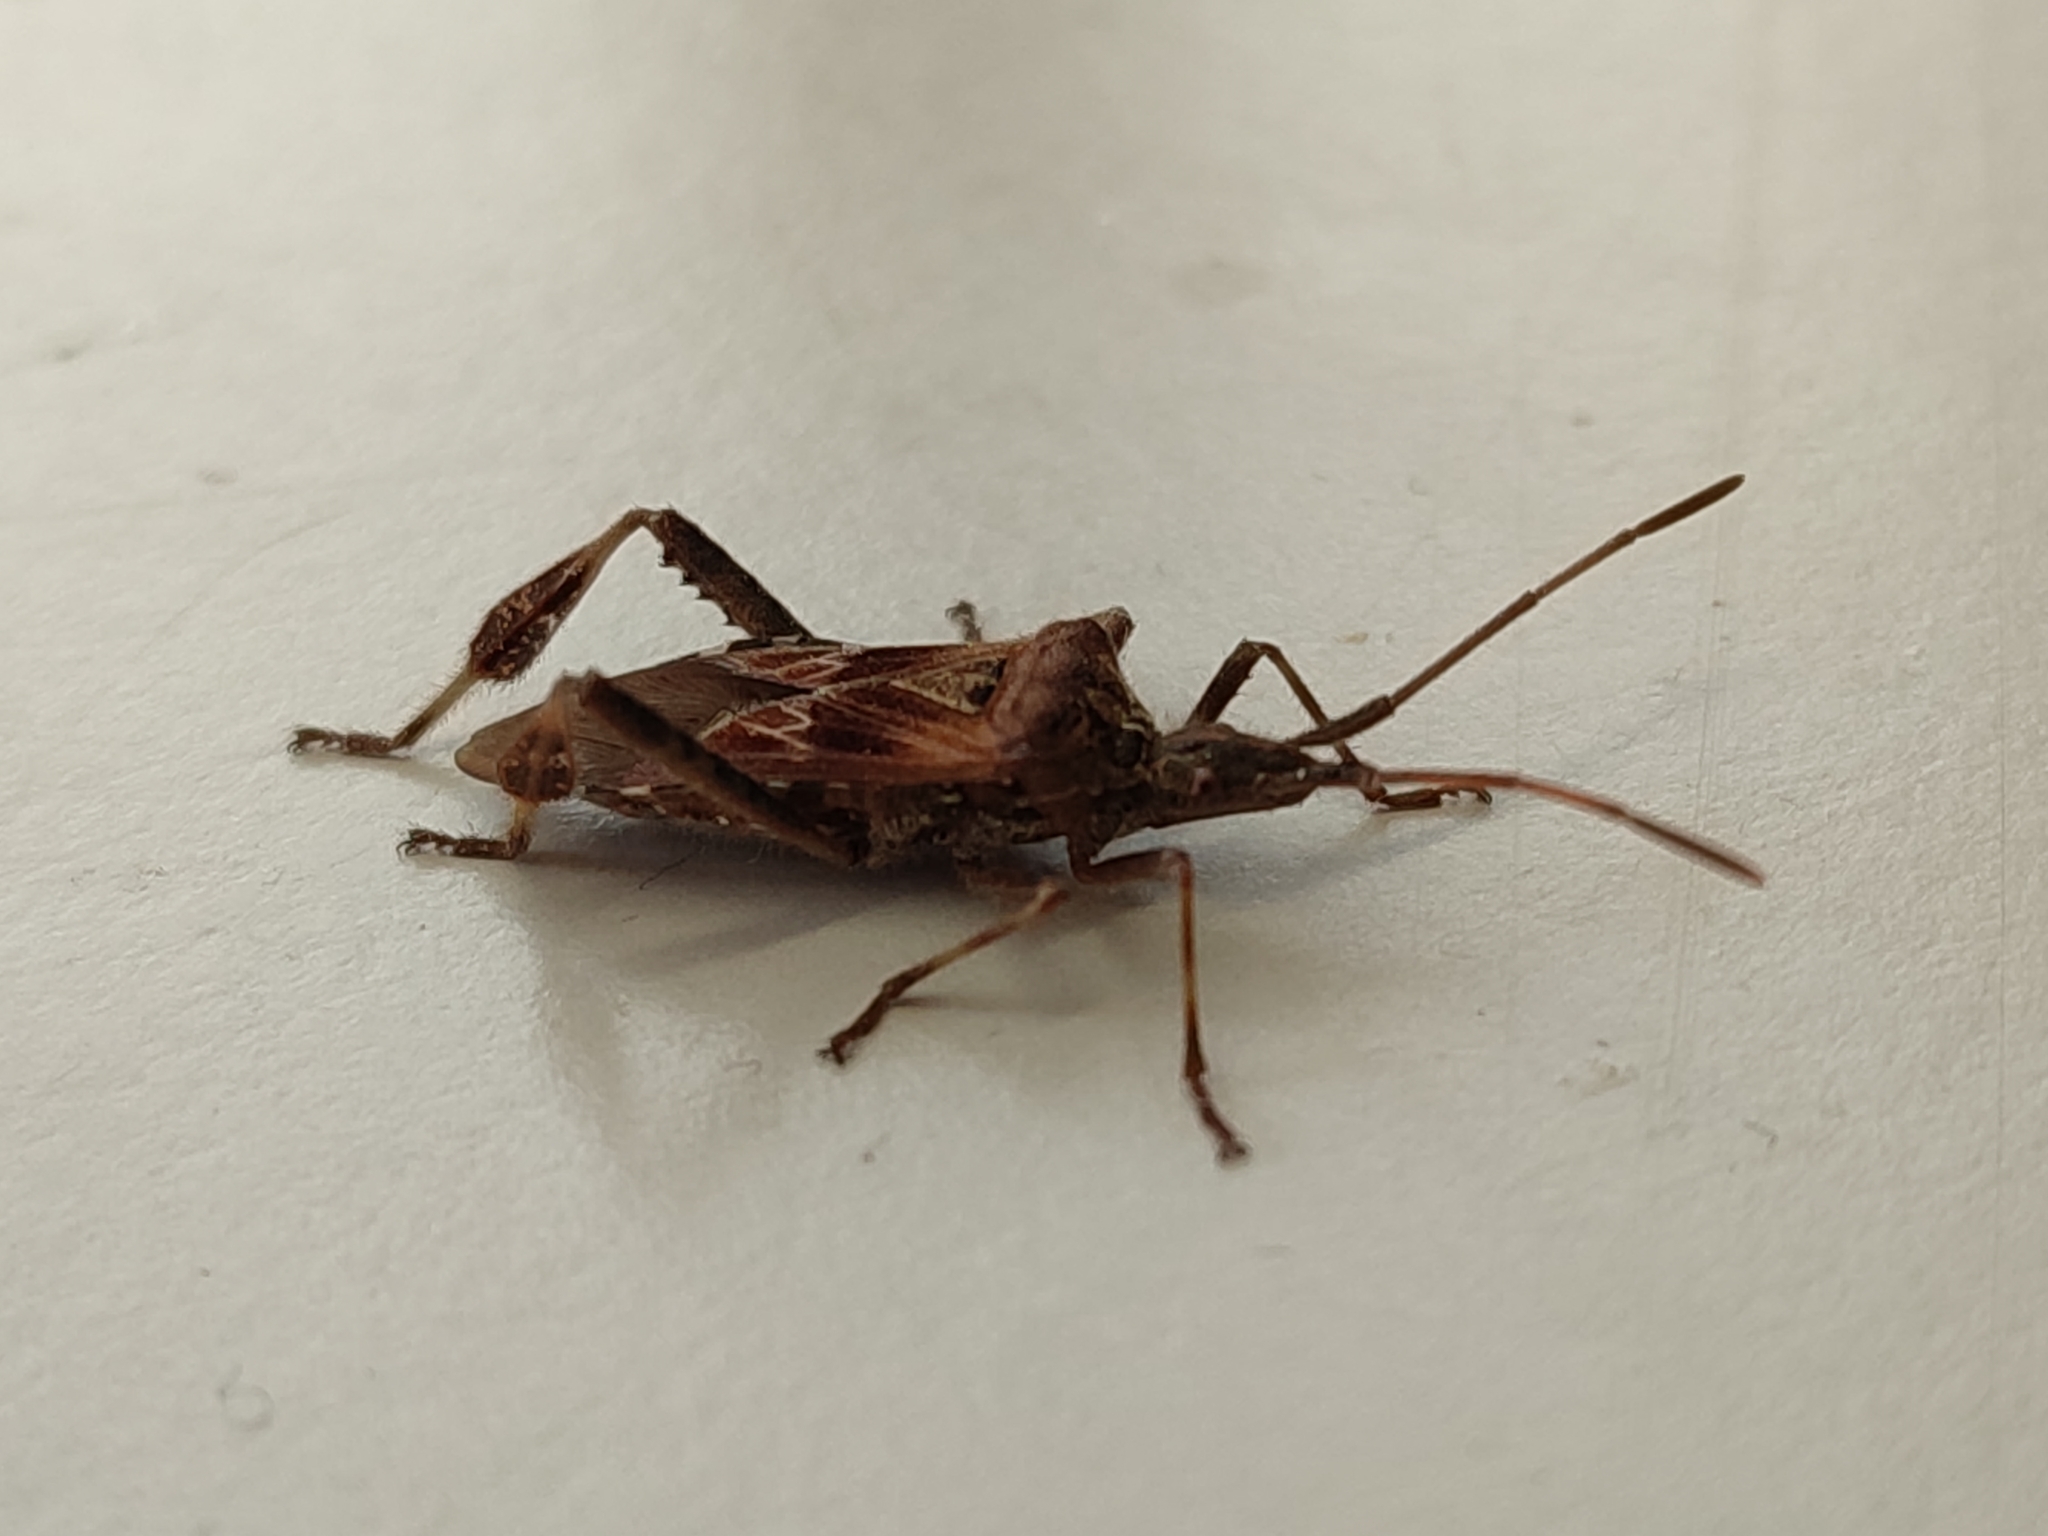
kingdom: Animalia
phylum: Arthropoda
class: Insecta
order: Hemiptera
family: Coreidae
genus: Leptoglossus
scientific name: Leptoglossus occidentalis
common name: Western conifer-seed bug
